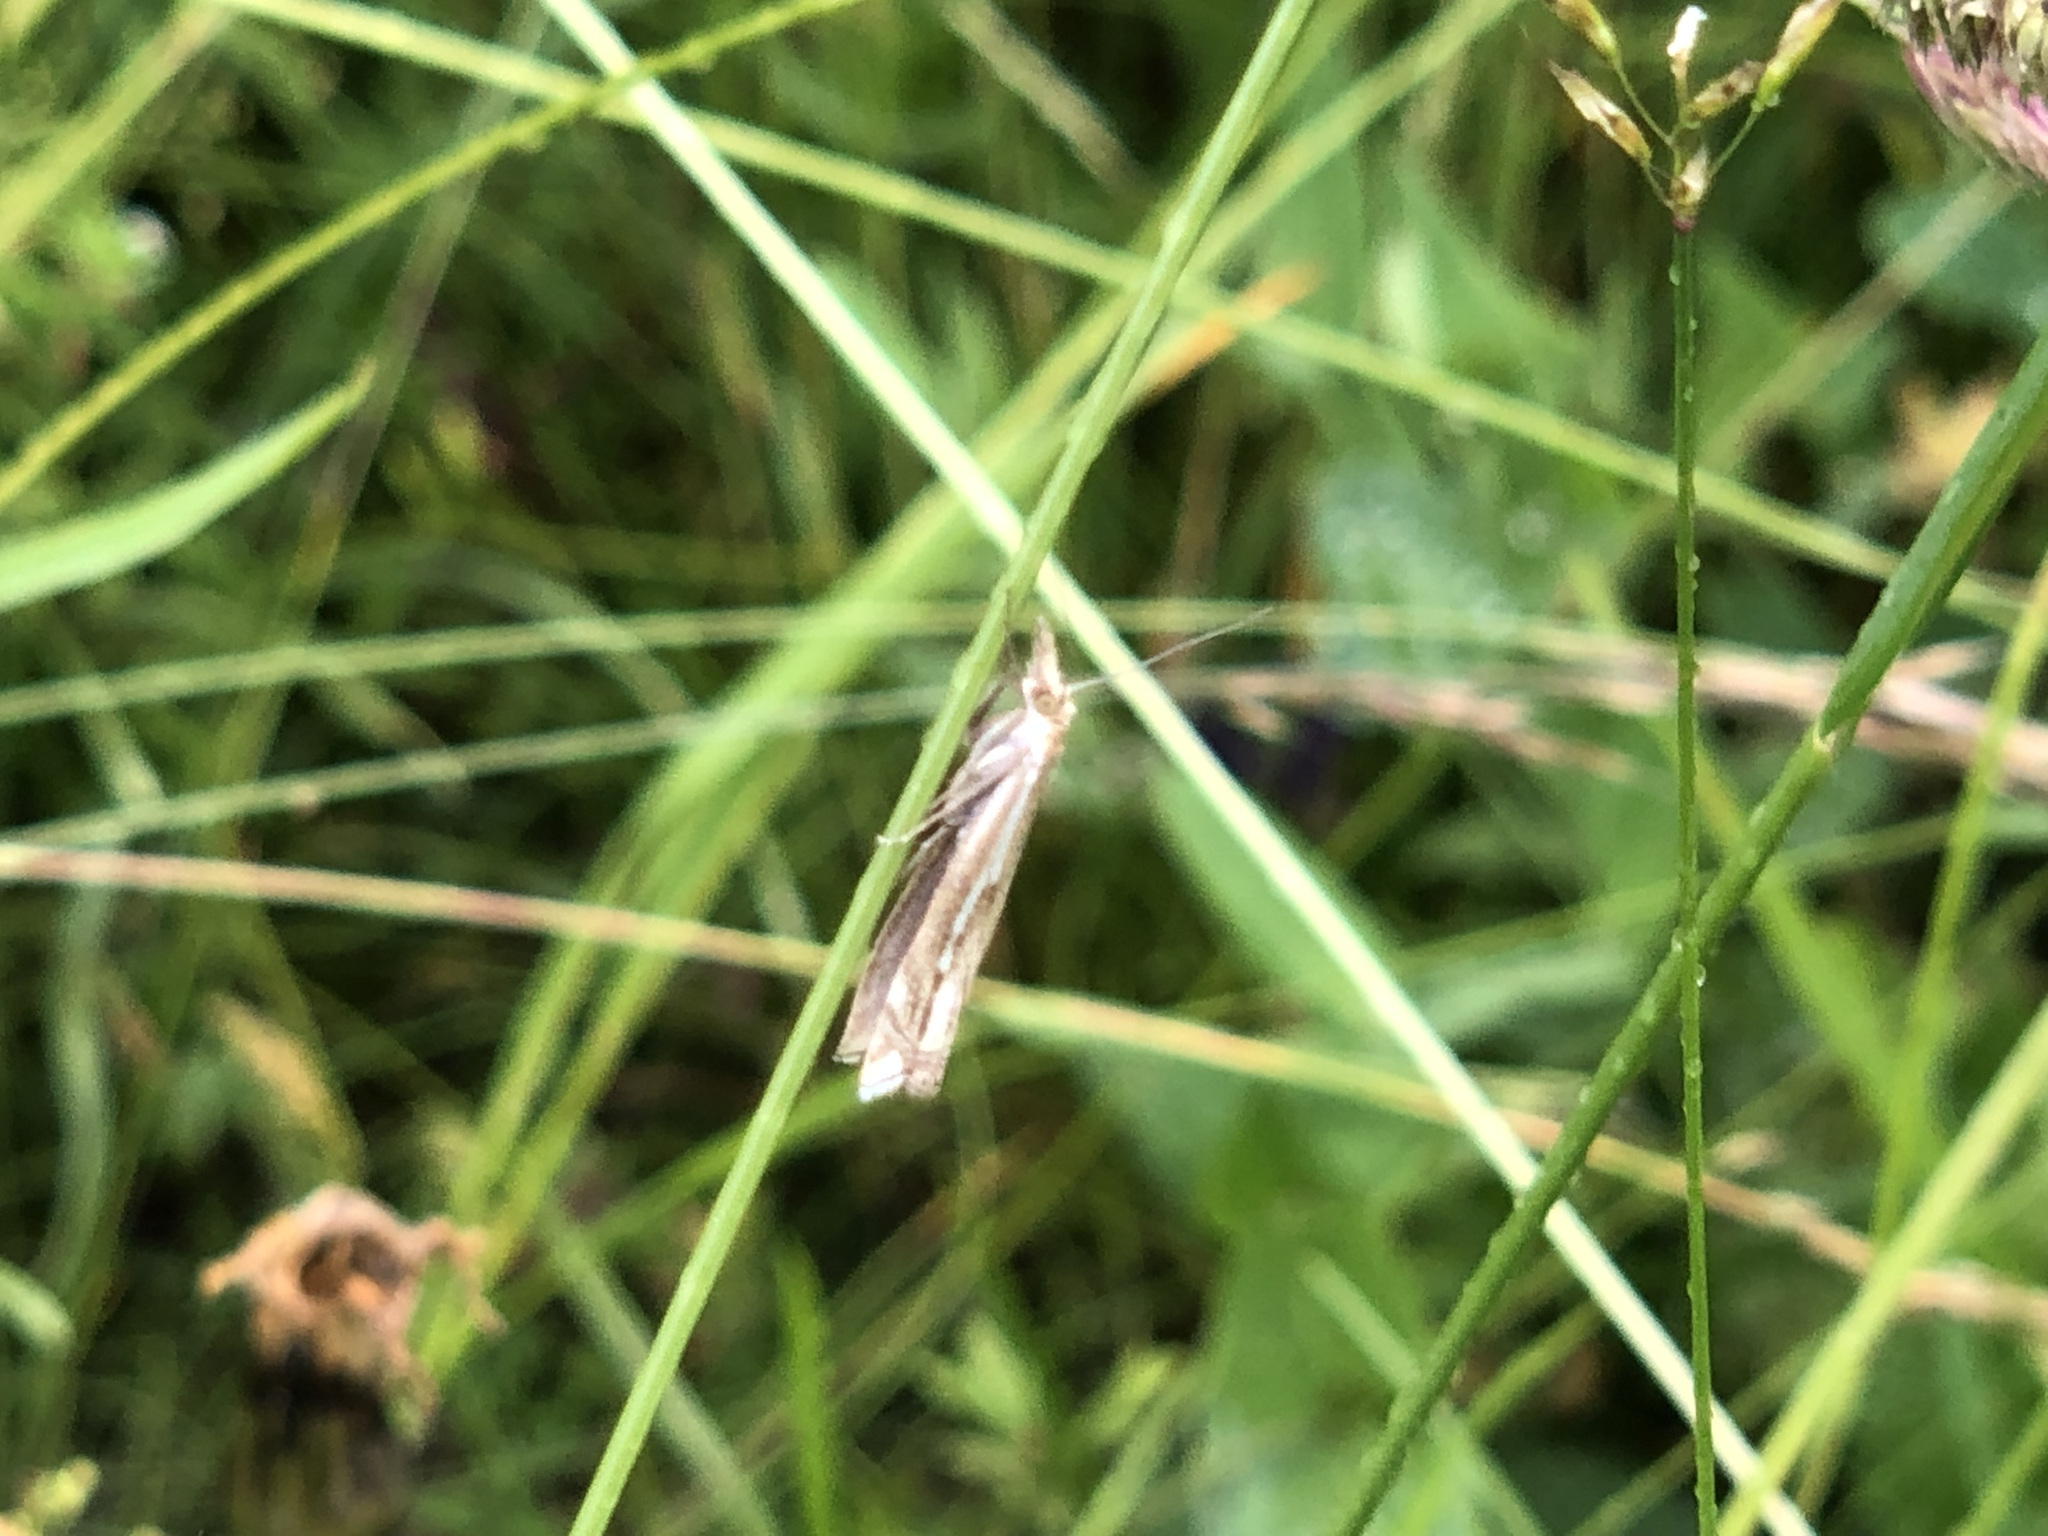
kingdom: Animalia
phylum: Arthropoda
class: Insecta
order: Lepidoptera
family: Crambidae
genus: Crambus
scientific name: Crambus pratella
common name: Scarce grass-veneer
